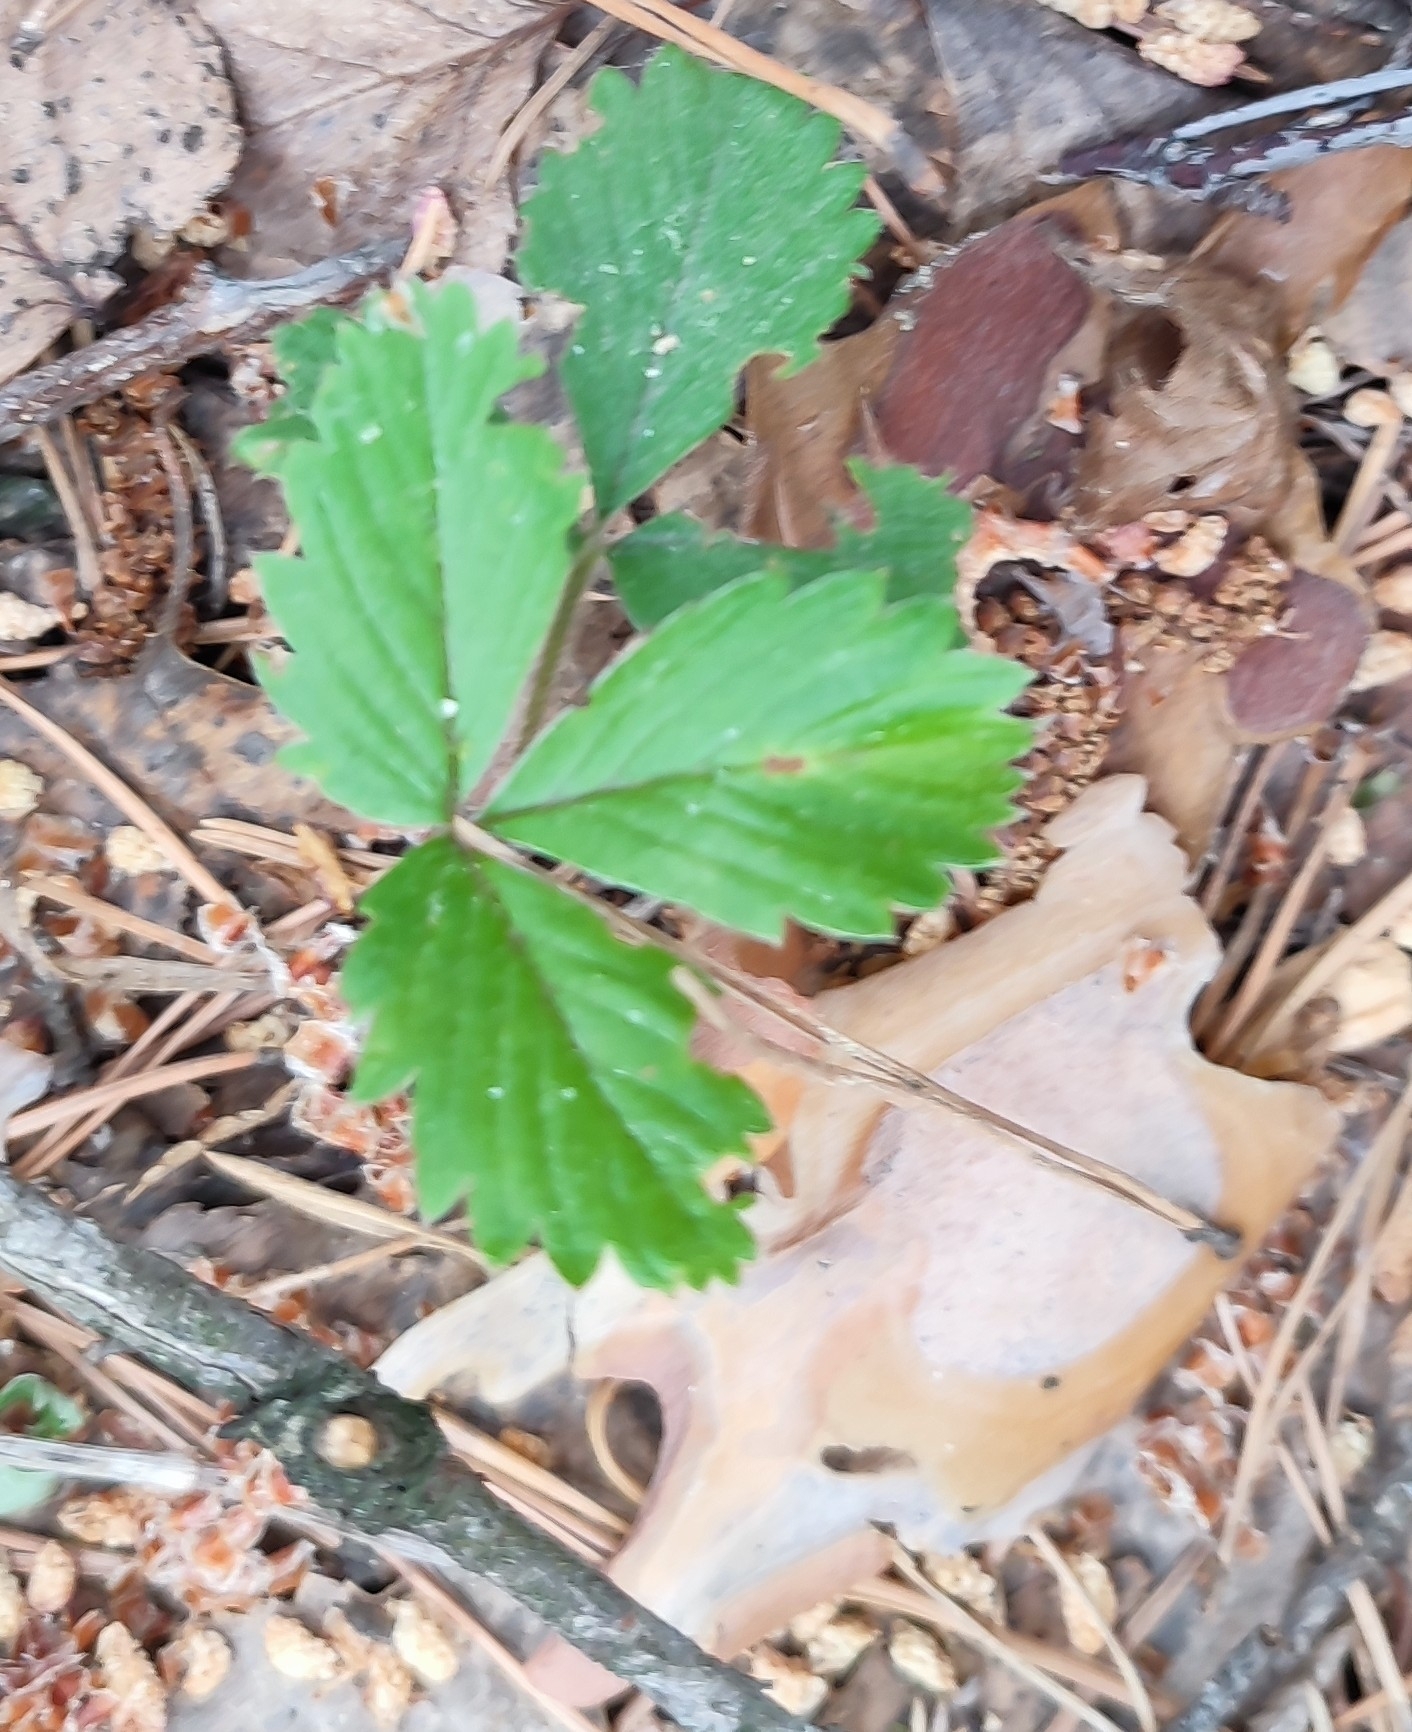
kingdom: Plantae
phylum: Tracheophyta
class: Magnoliopsida
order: Rosales
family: Rosaceae
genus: Fragaria
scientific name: Fragaria viridis
